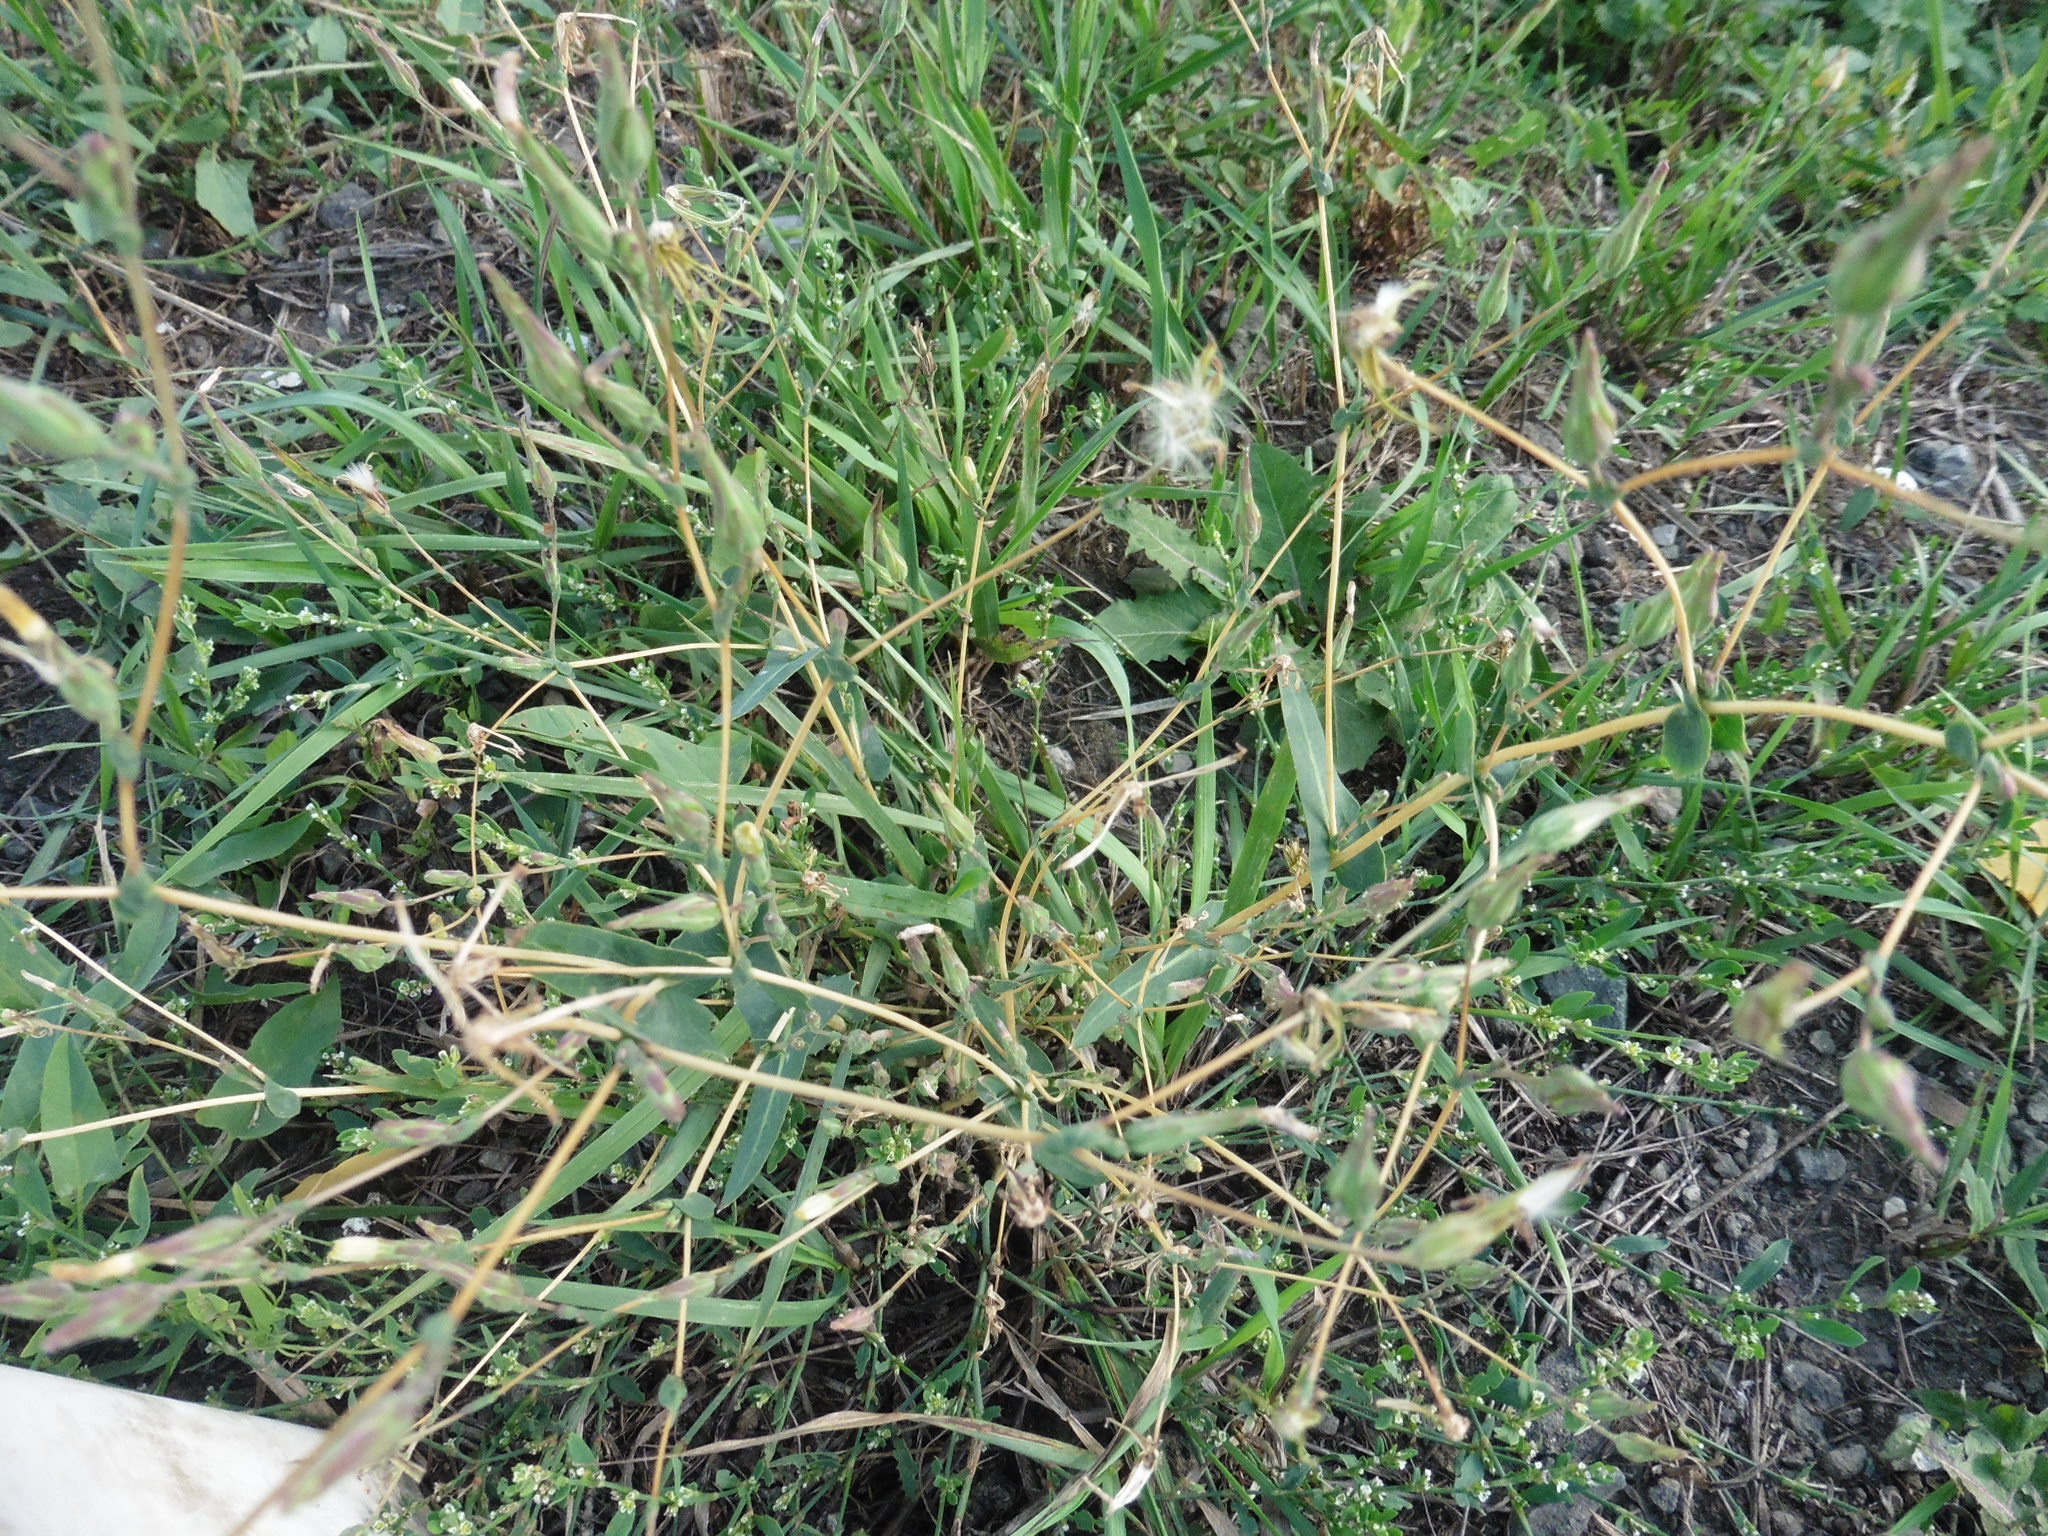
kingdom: Plantae
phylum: Tracheophyta
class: Magnoliopsida
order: Asterales
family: Asteraceae
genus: Lactuca
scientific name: Lactuca serriola
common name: Prickly lettuce
